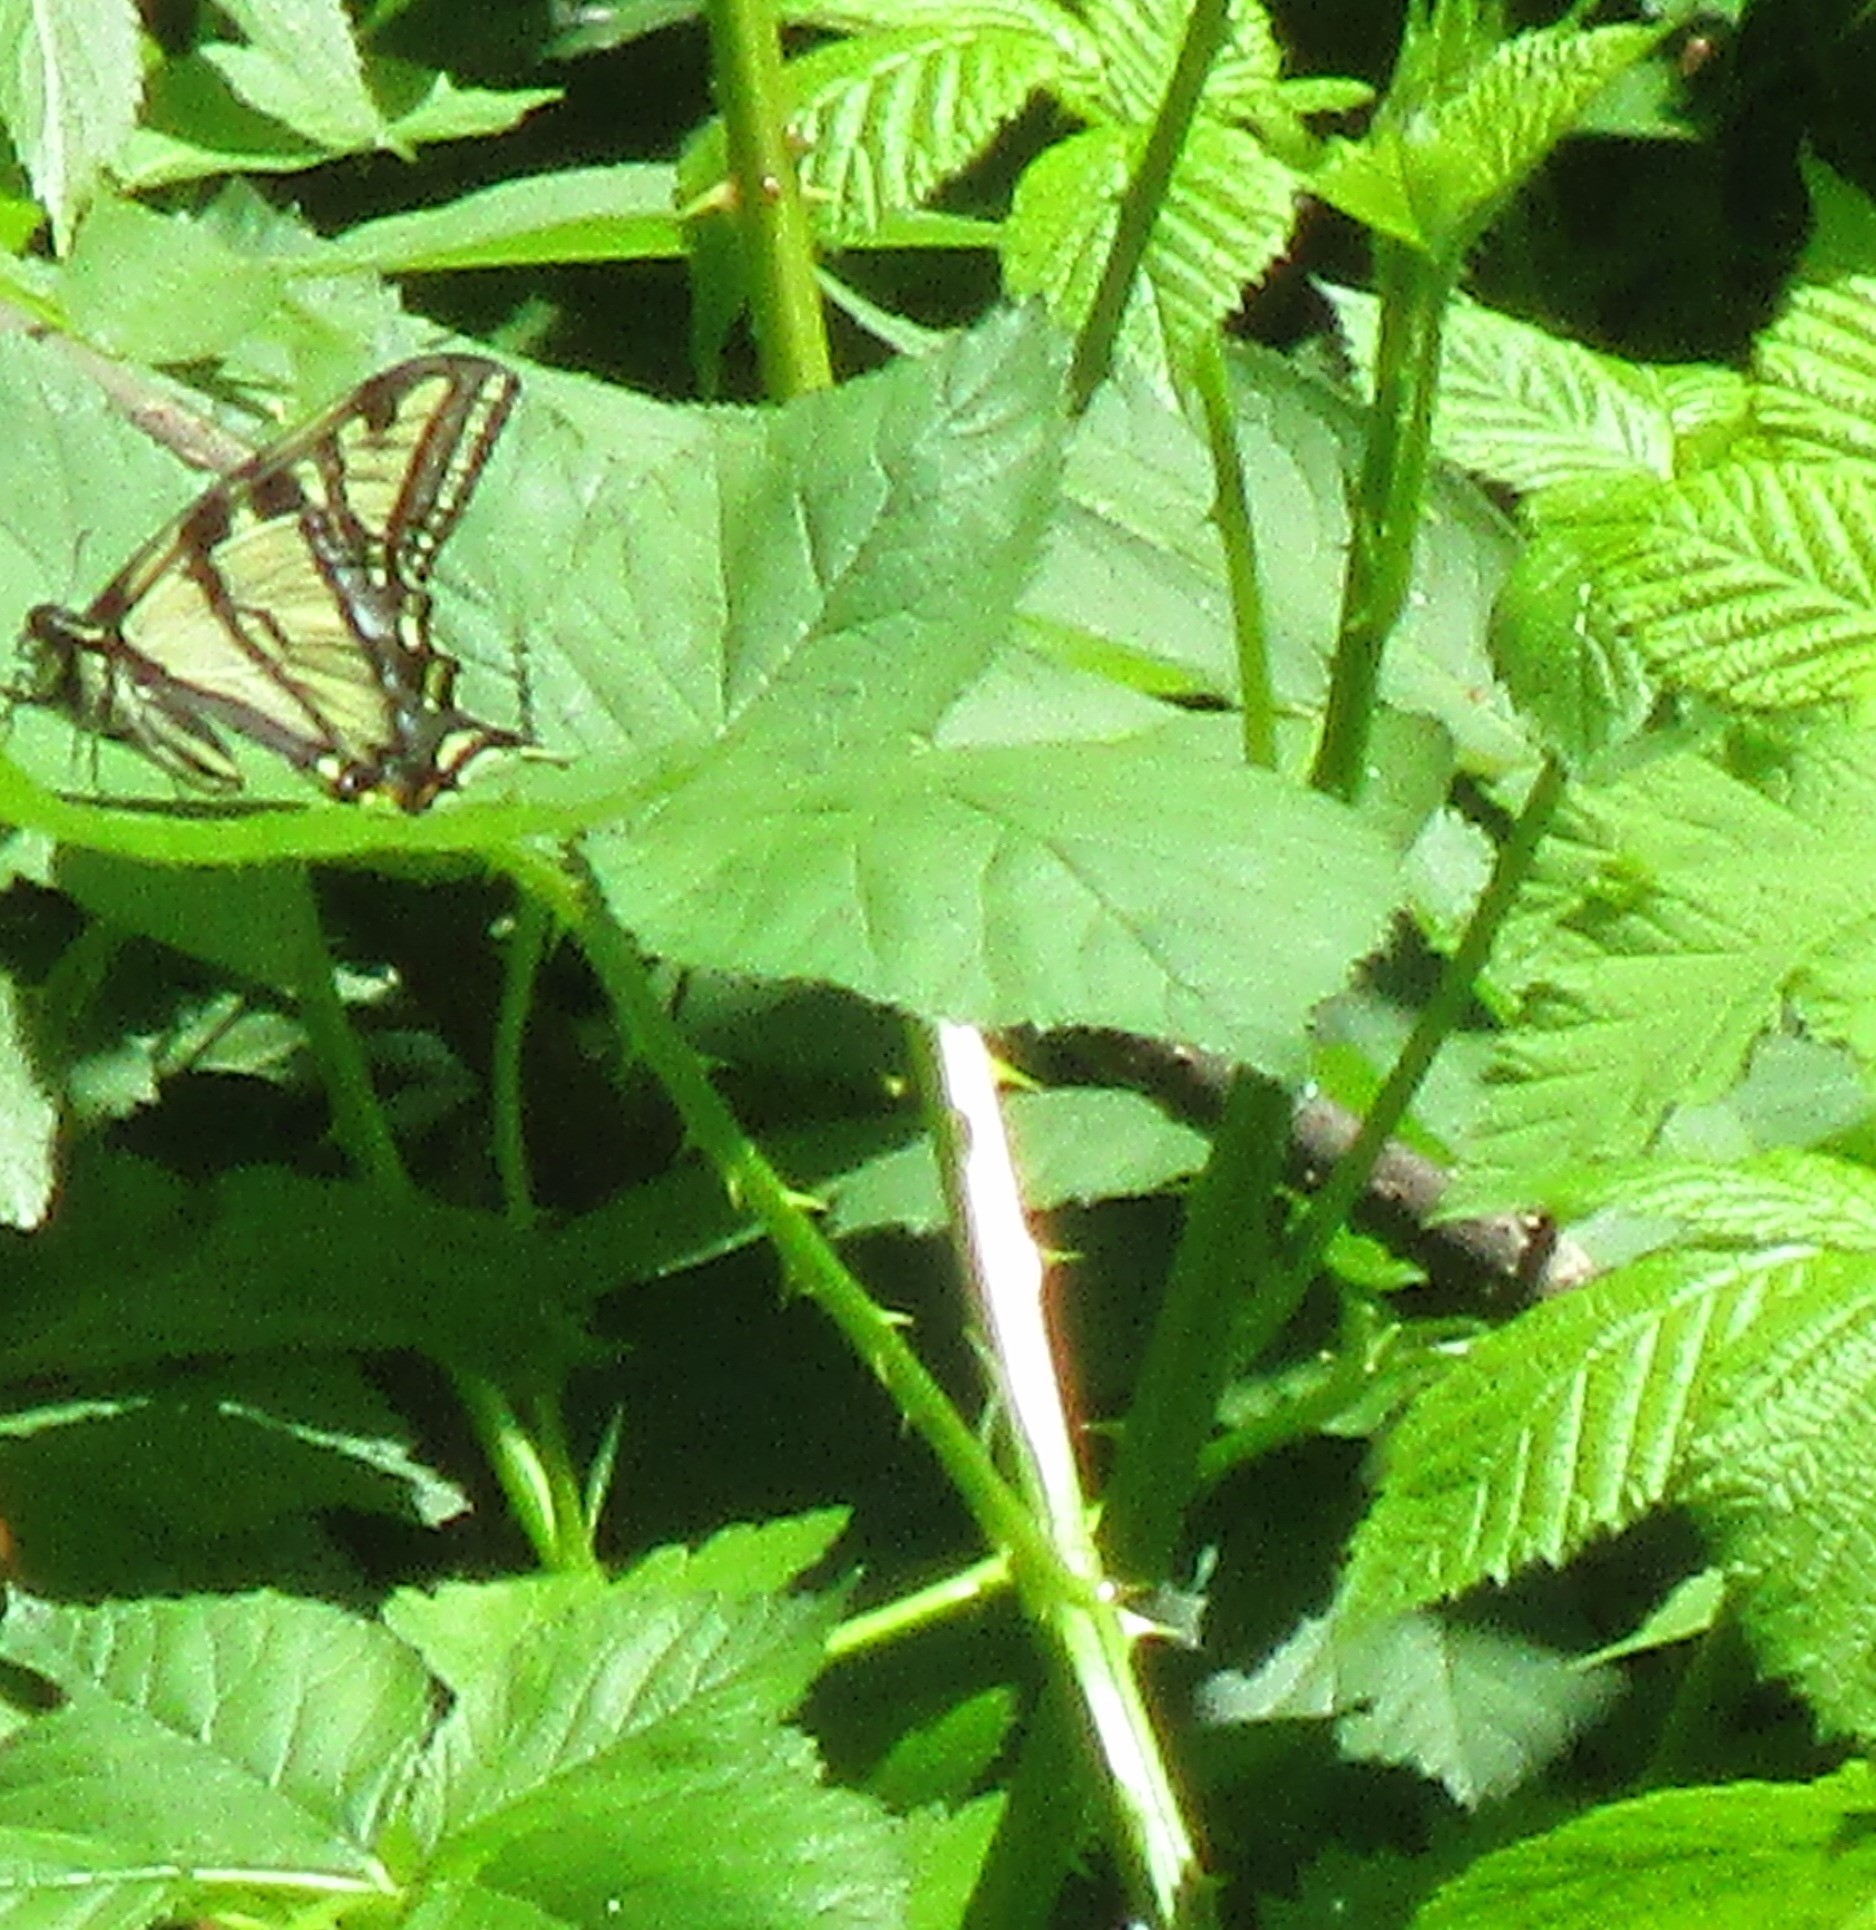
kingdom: Animalia
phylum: Arthropoda
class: Insecta
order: Lepidoptera
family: Papilionidae
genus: Papilio
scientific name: Papilio rutulus
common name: Western tiger swallowtail
